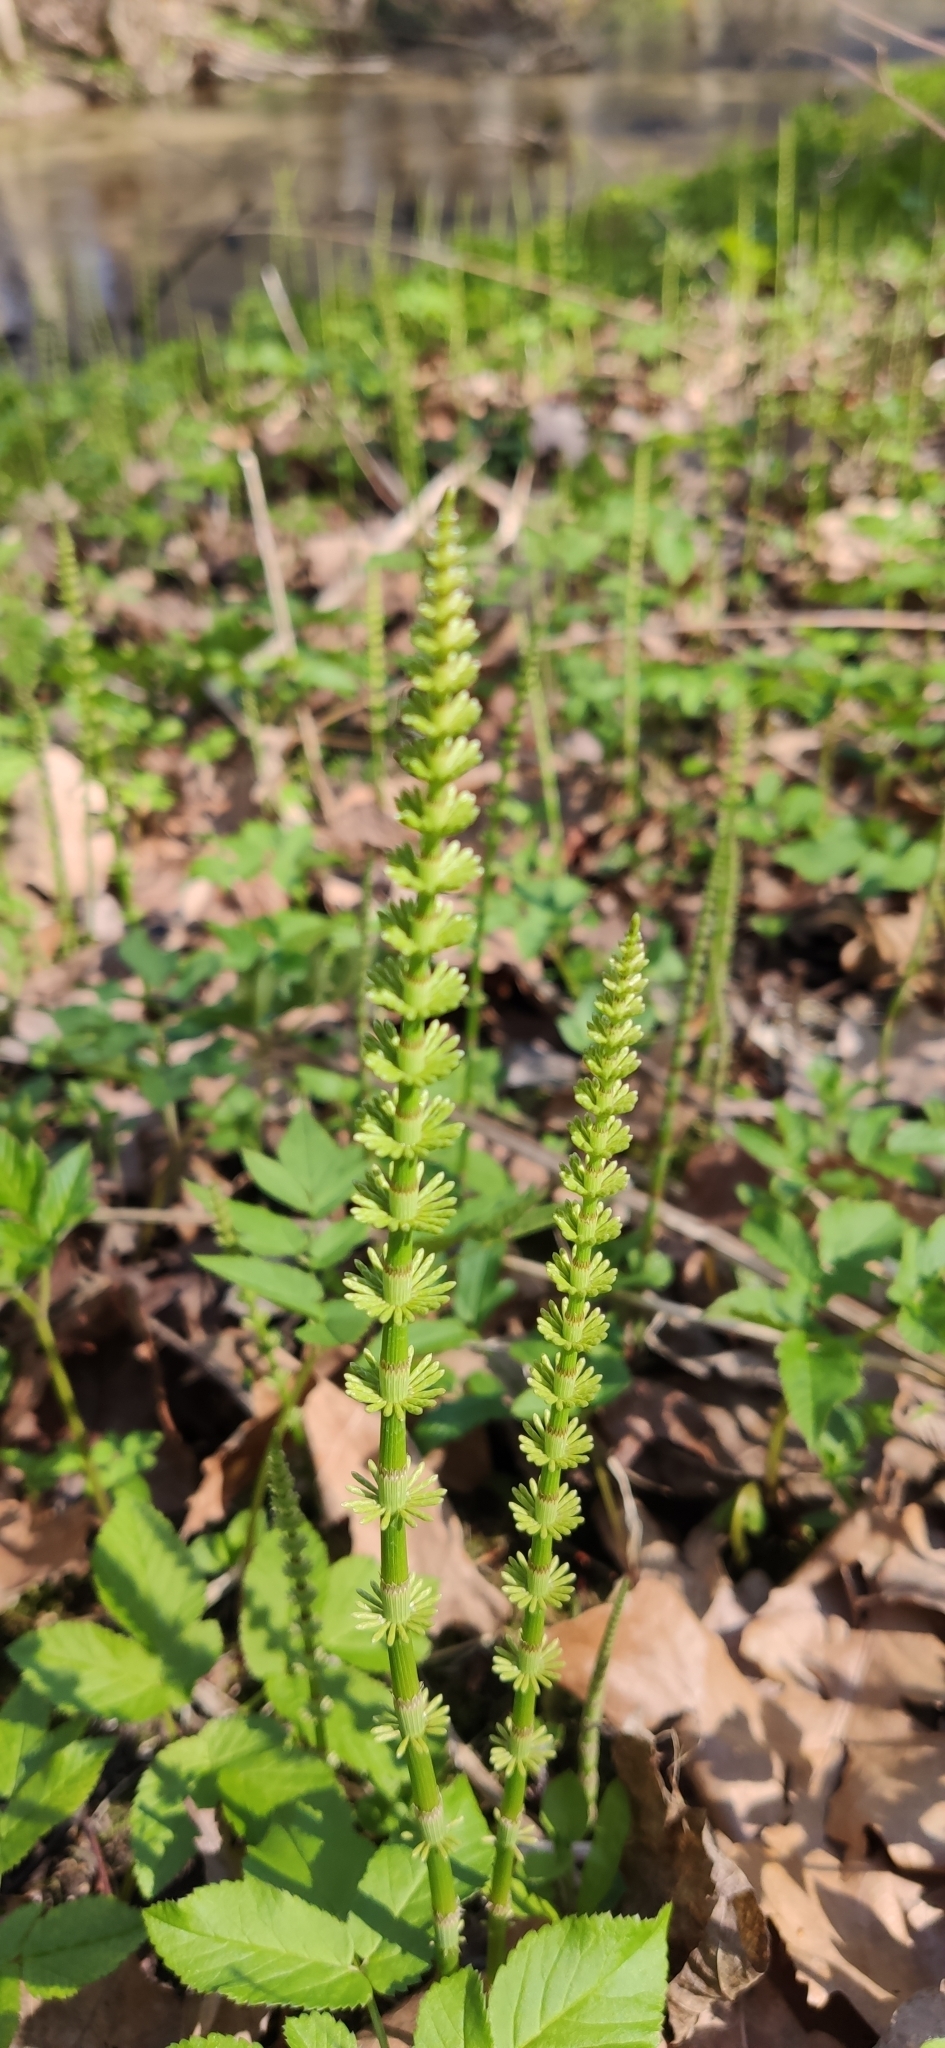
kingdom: Plantae
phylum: Tracheophyta
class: Polypodiopsida
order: Equisetales
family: Equisetaceae
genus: Equisetum
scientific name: Equisetum pratense
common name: Meadow horsetail
